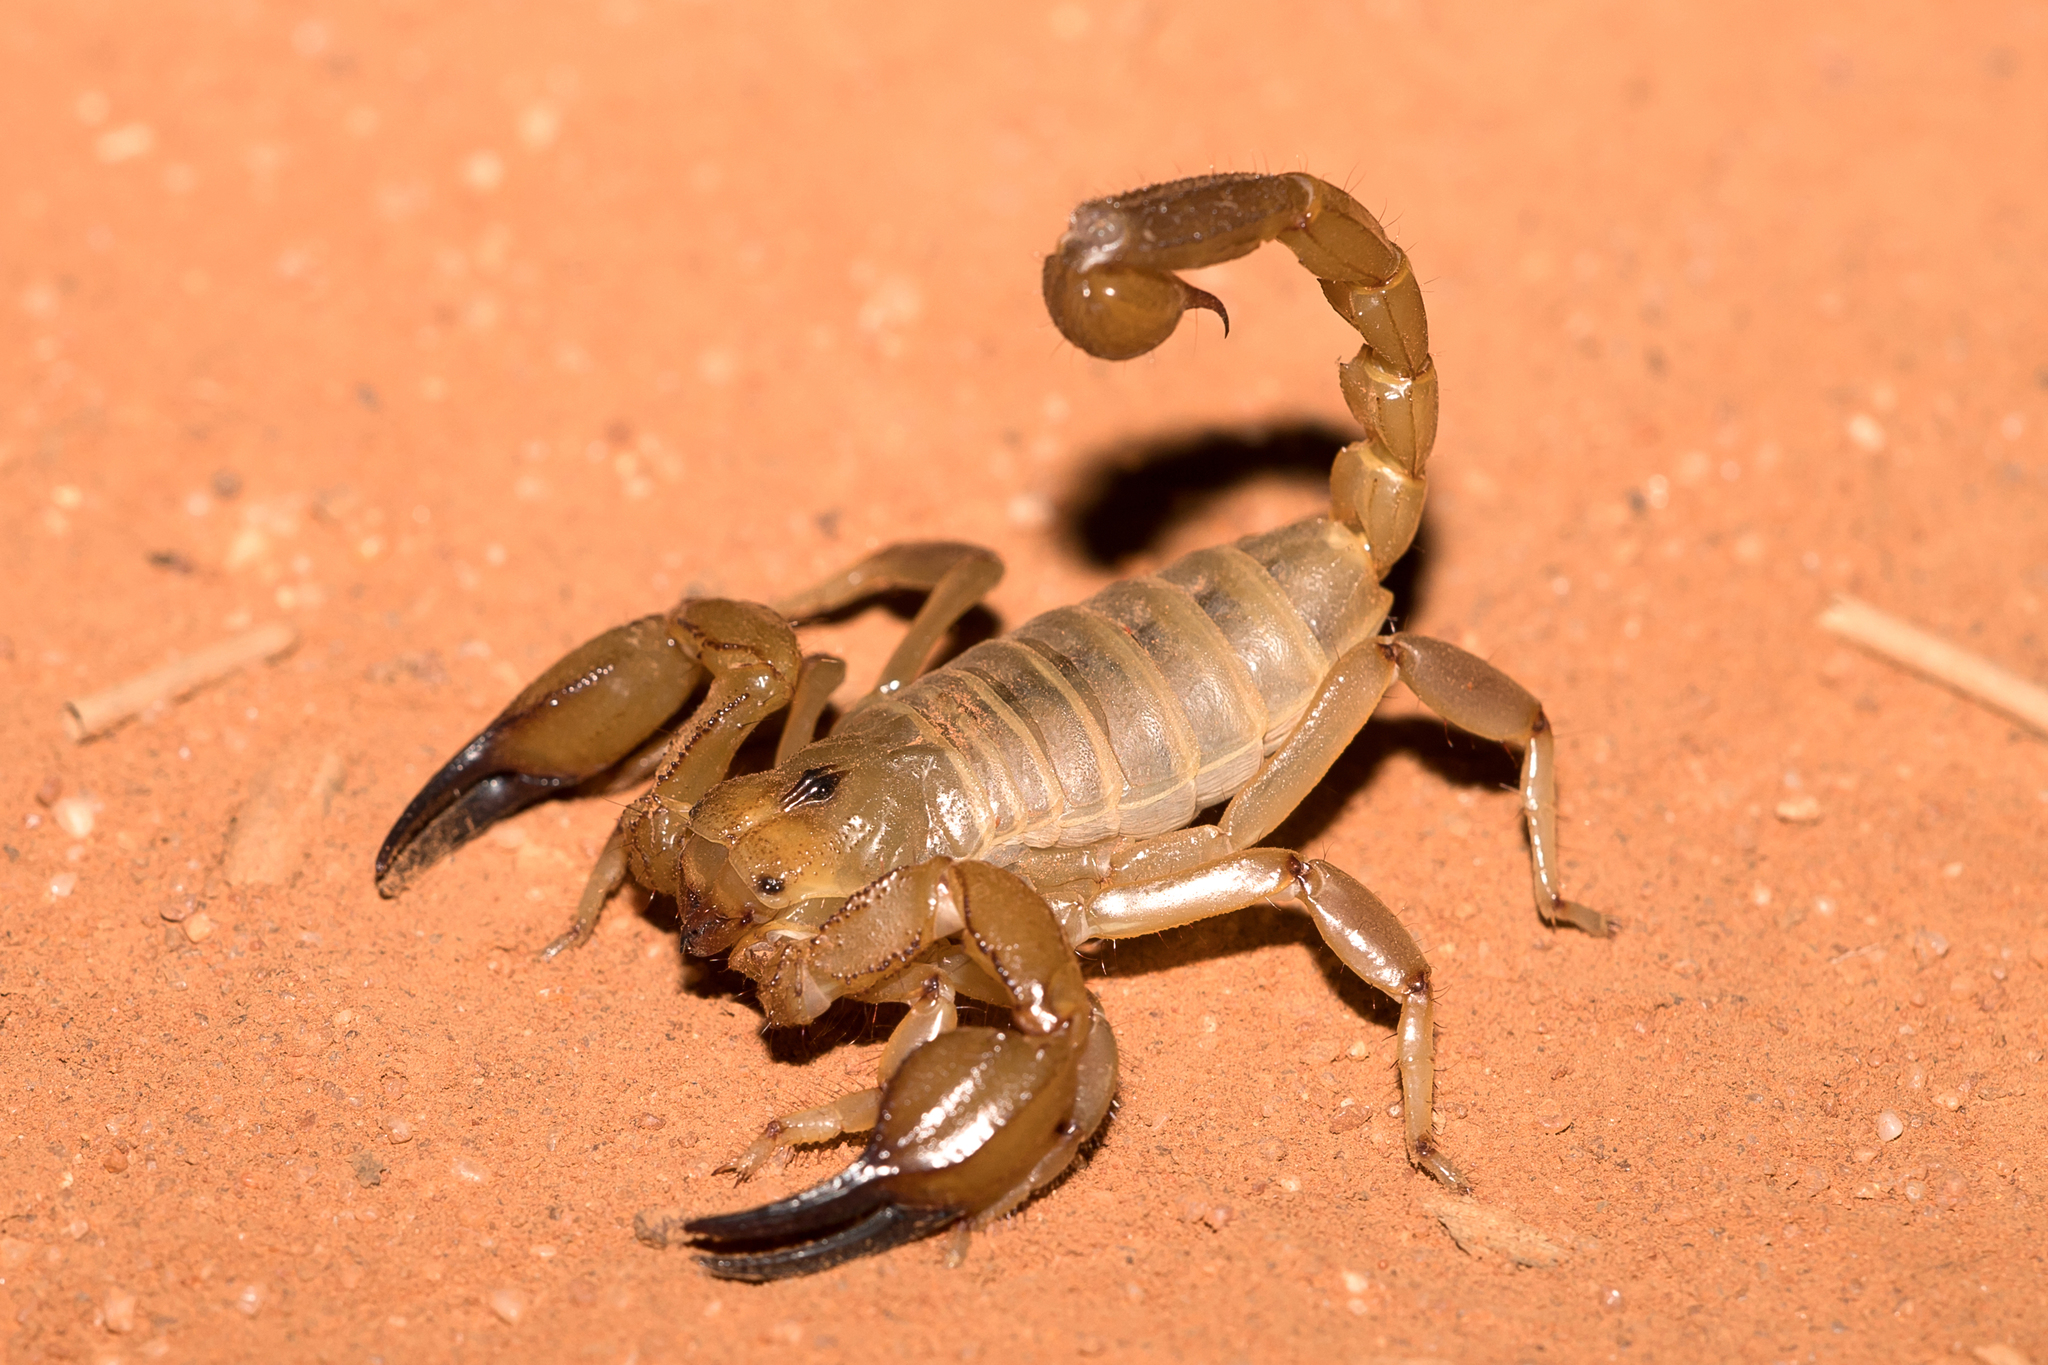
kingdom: Animalia
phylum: Arthropoda
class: Arachnida
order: Scorpiones
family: Scorpionidae
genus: Urodacus
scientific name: Urodacus yaschenkoi
